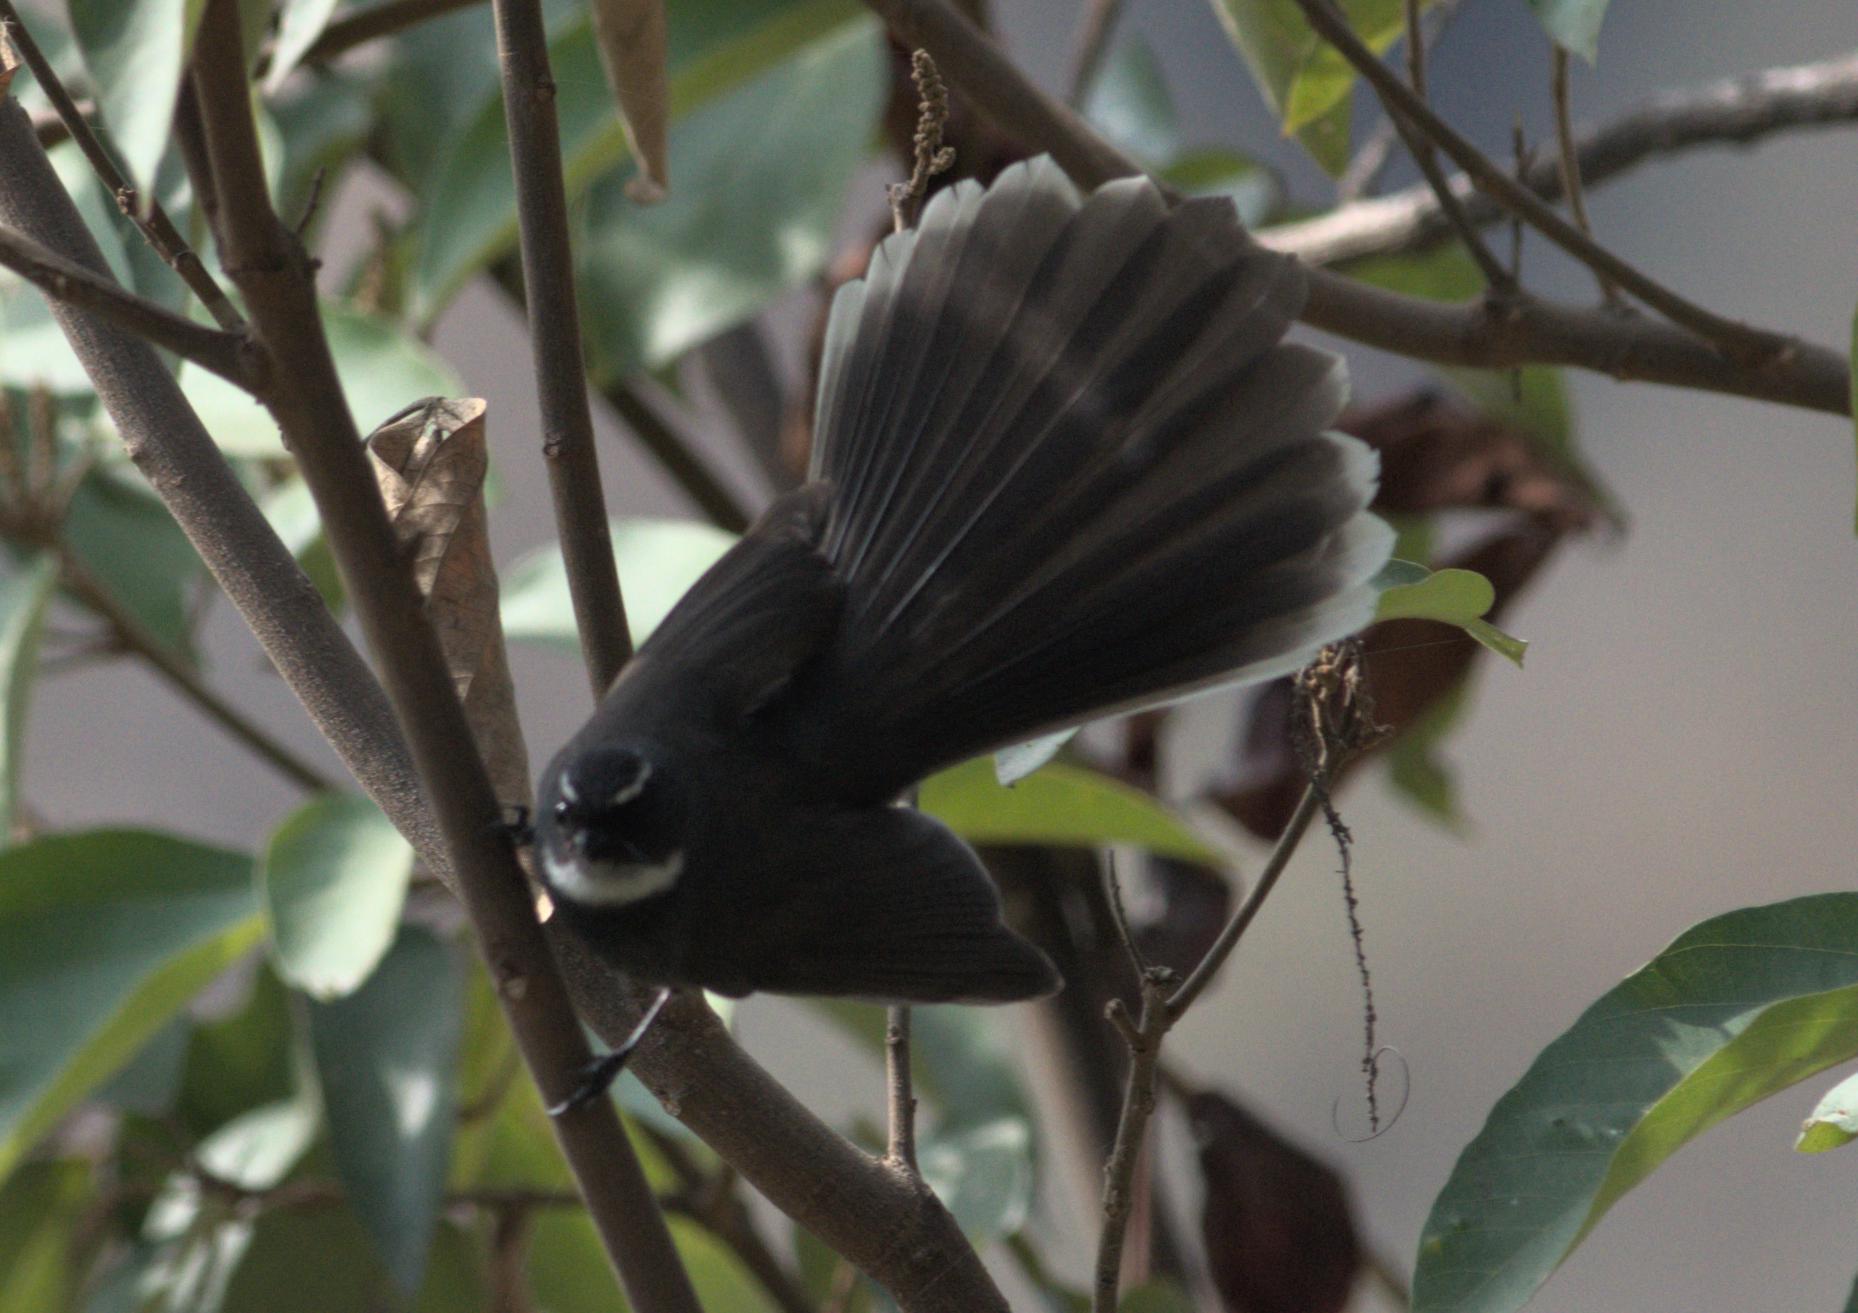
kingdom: Animalia
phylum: Chordata
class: Aves
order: Passeriformes
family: Rhipiduridae
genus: Rhipidura
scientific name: Rhipidura albicollis
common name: White-throated fantail
